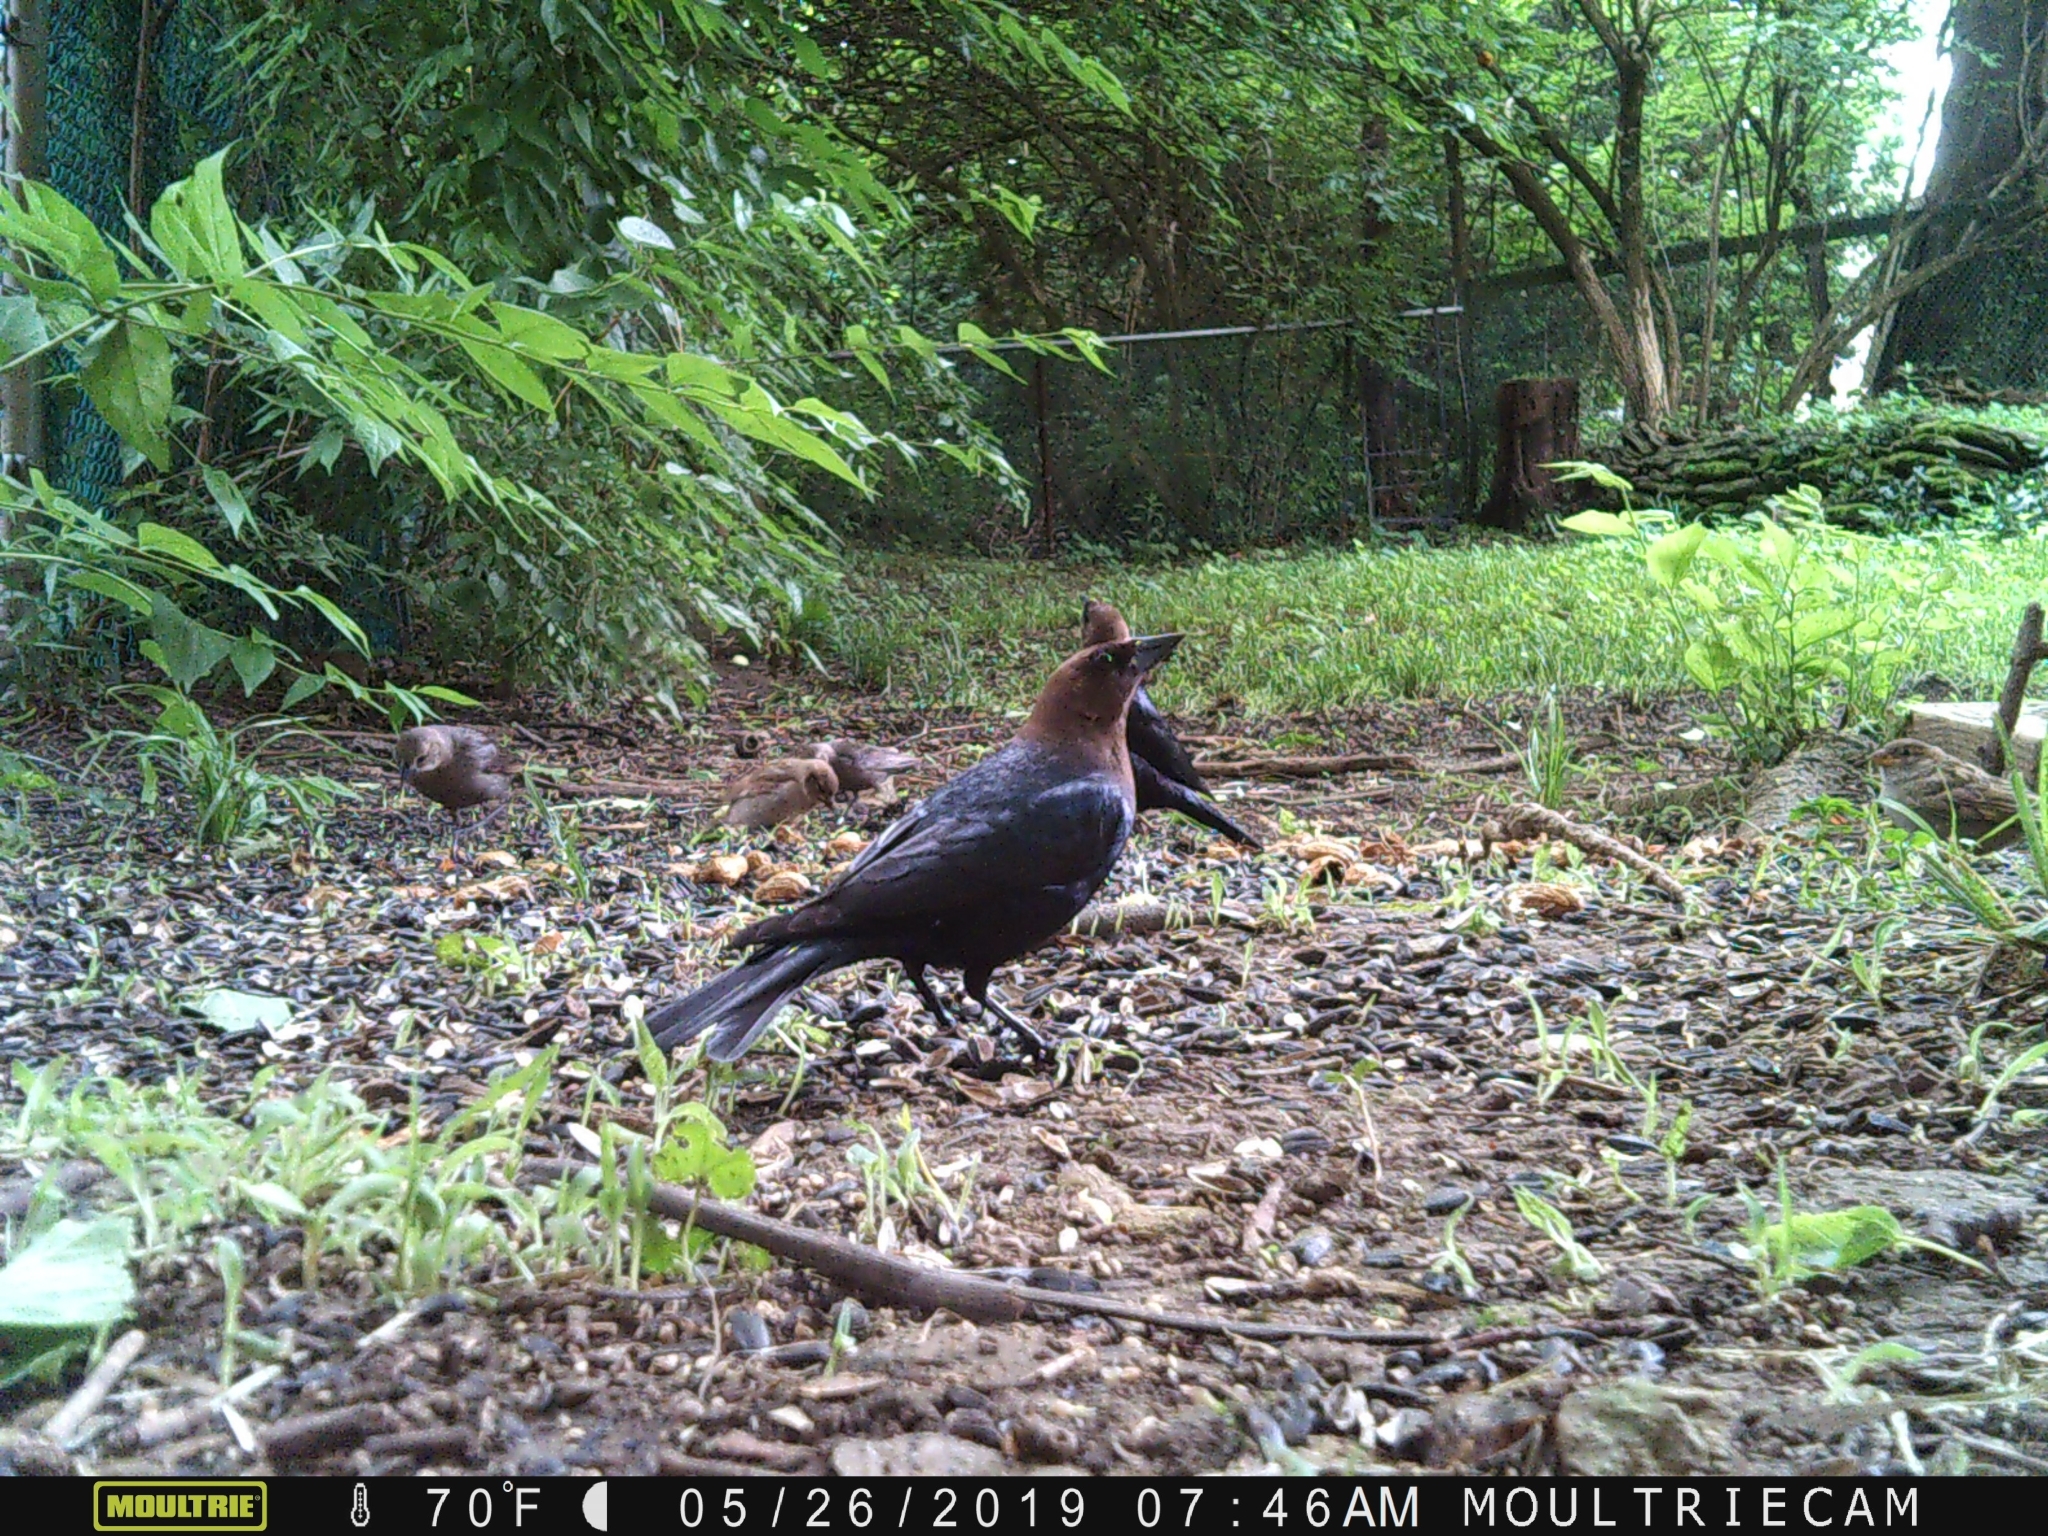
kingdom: Animalia
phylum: Chordata
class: Aves
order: Passeriformes
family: Icteridae
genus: Molothrus
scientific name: Molothrus ater
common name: Brown-headed cowbird
